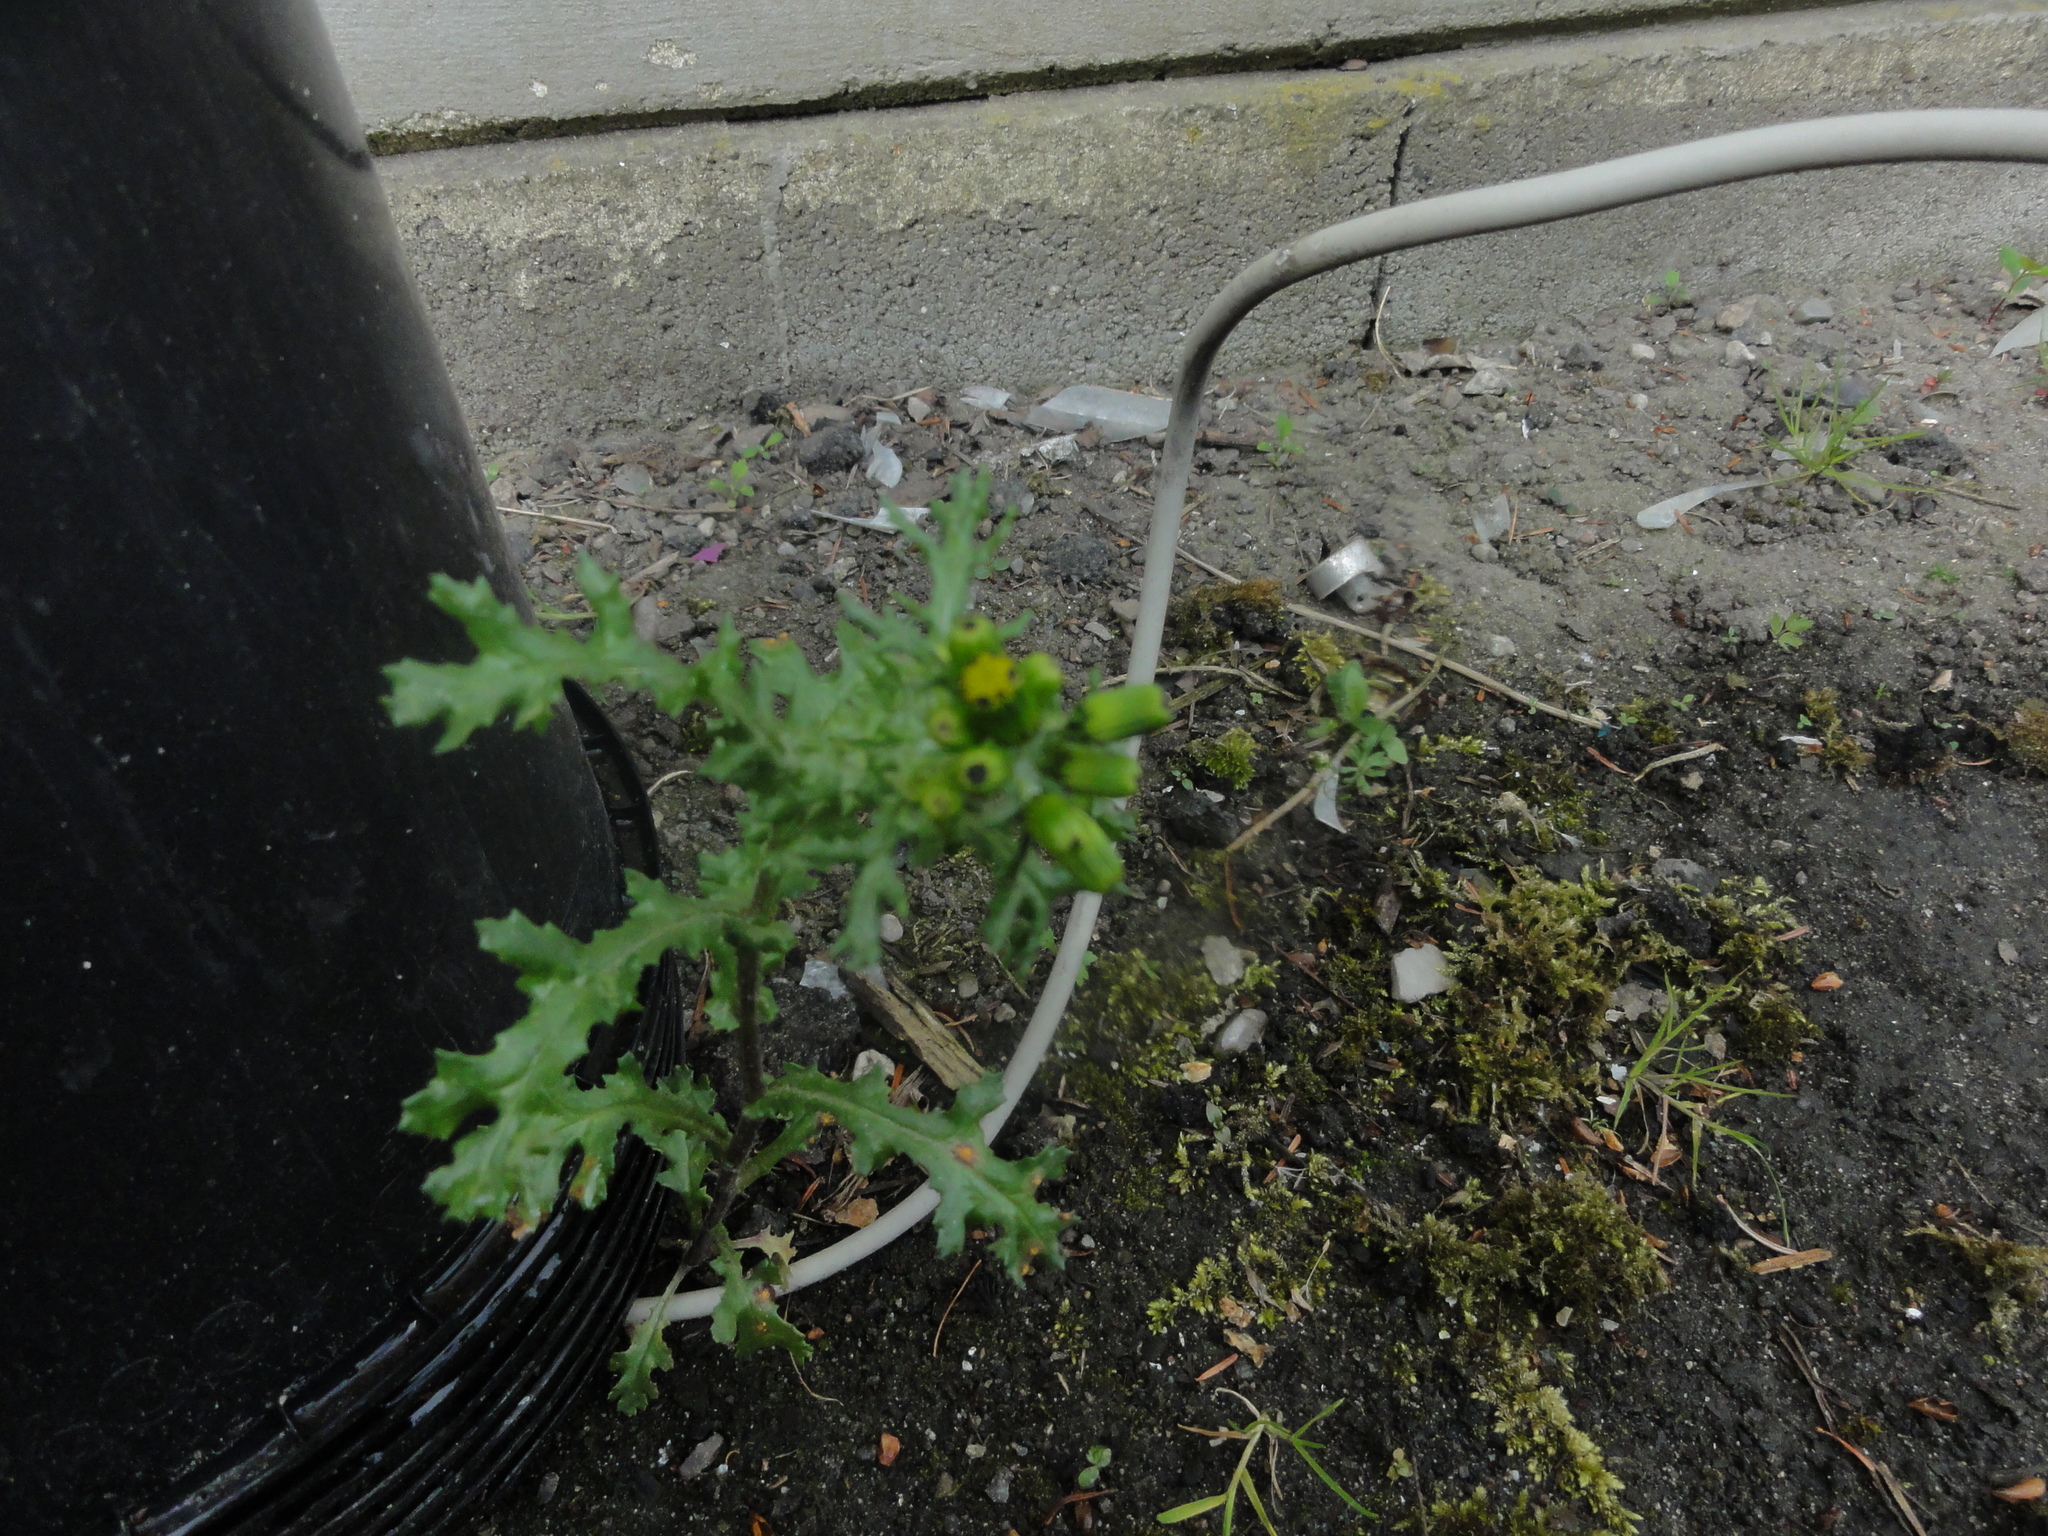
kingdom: Plantae
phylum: Tracheophyta
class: Magnoliopsida
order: Asterales
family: Asteraceae
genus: Senecio
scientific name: Senecio vulgaris
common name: Old-man-in-the-spring
